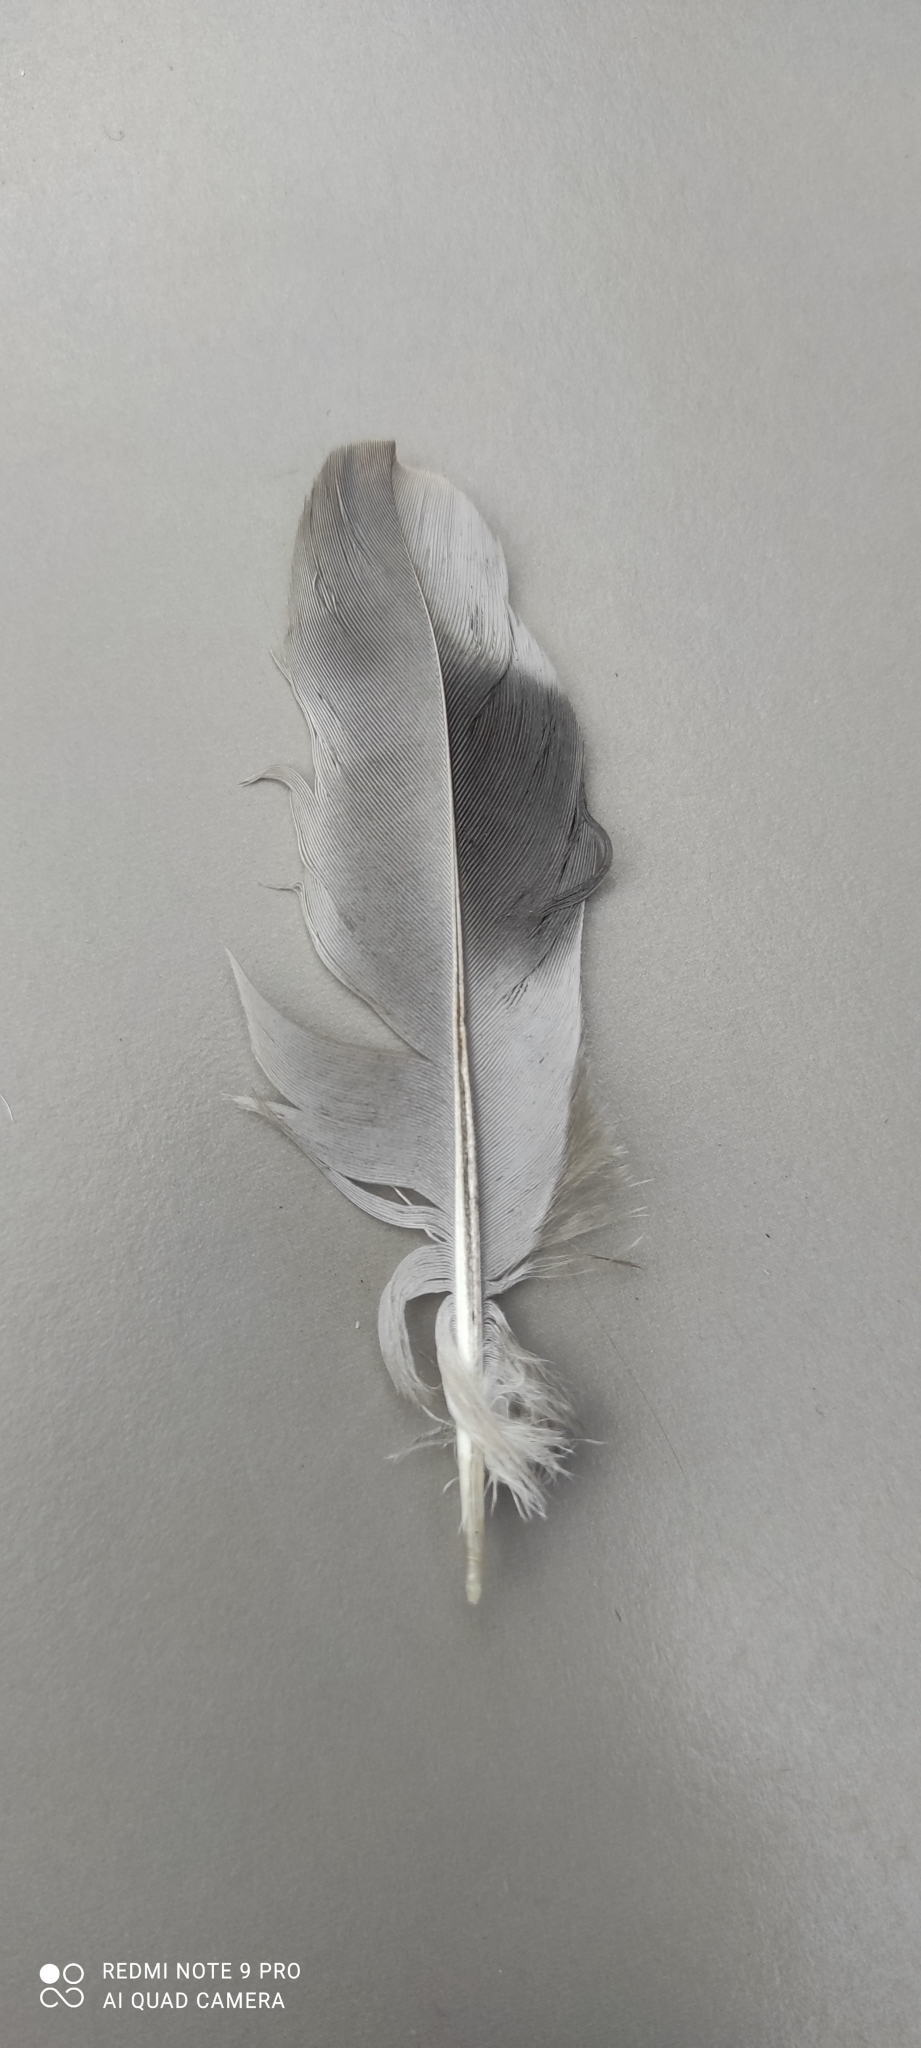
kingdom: Animalia
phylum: Chordata
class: Aves
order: Columbiformes
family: Columbidae
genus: Columba
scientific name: Columba livia
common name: Rock pigeon
